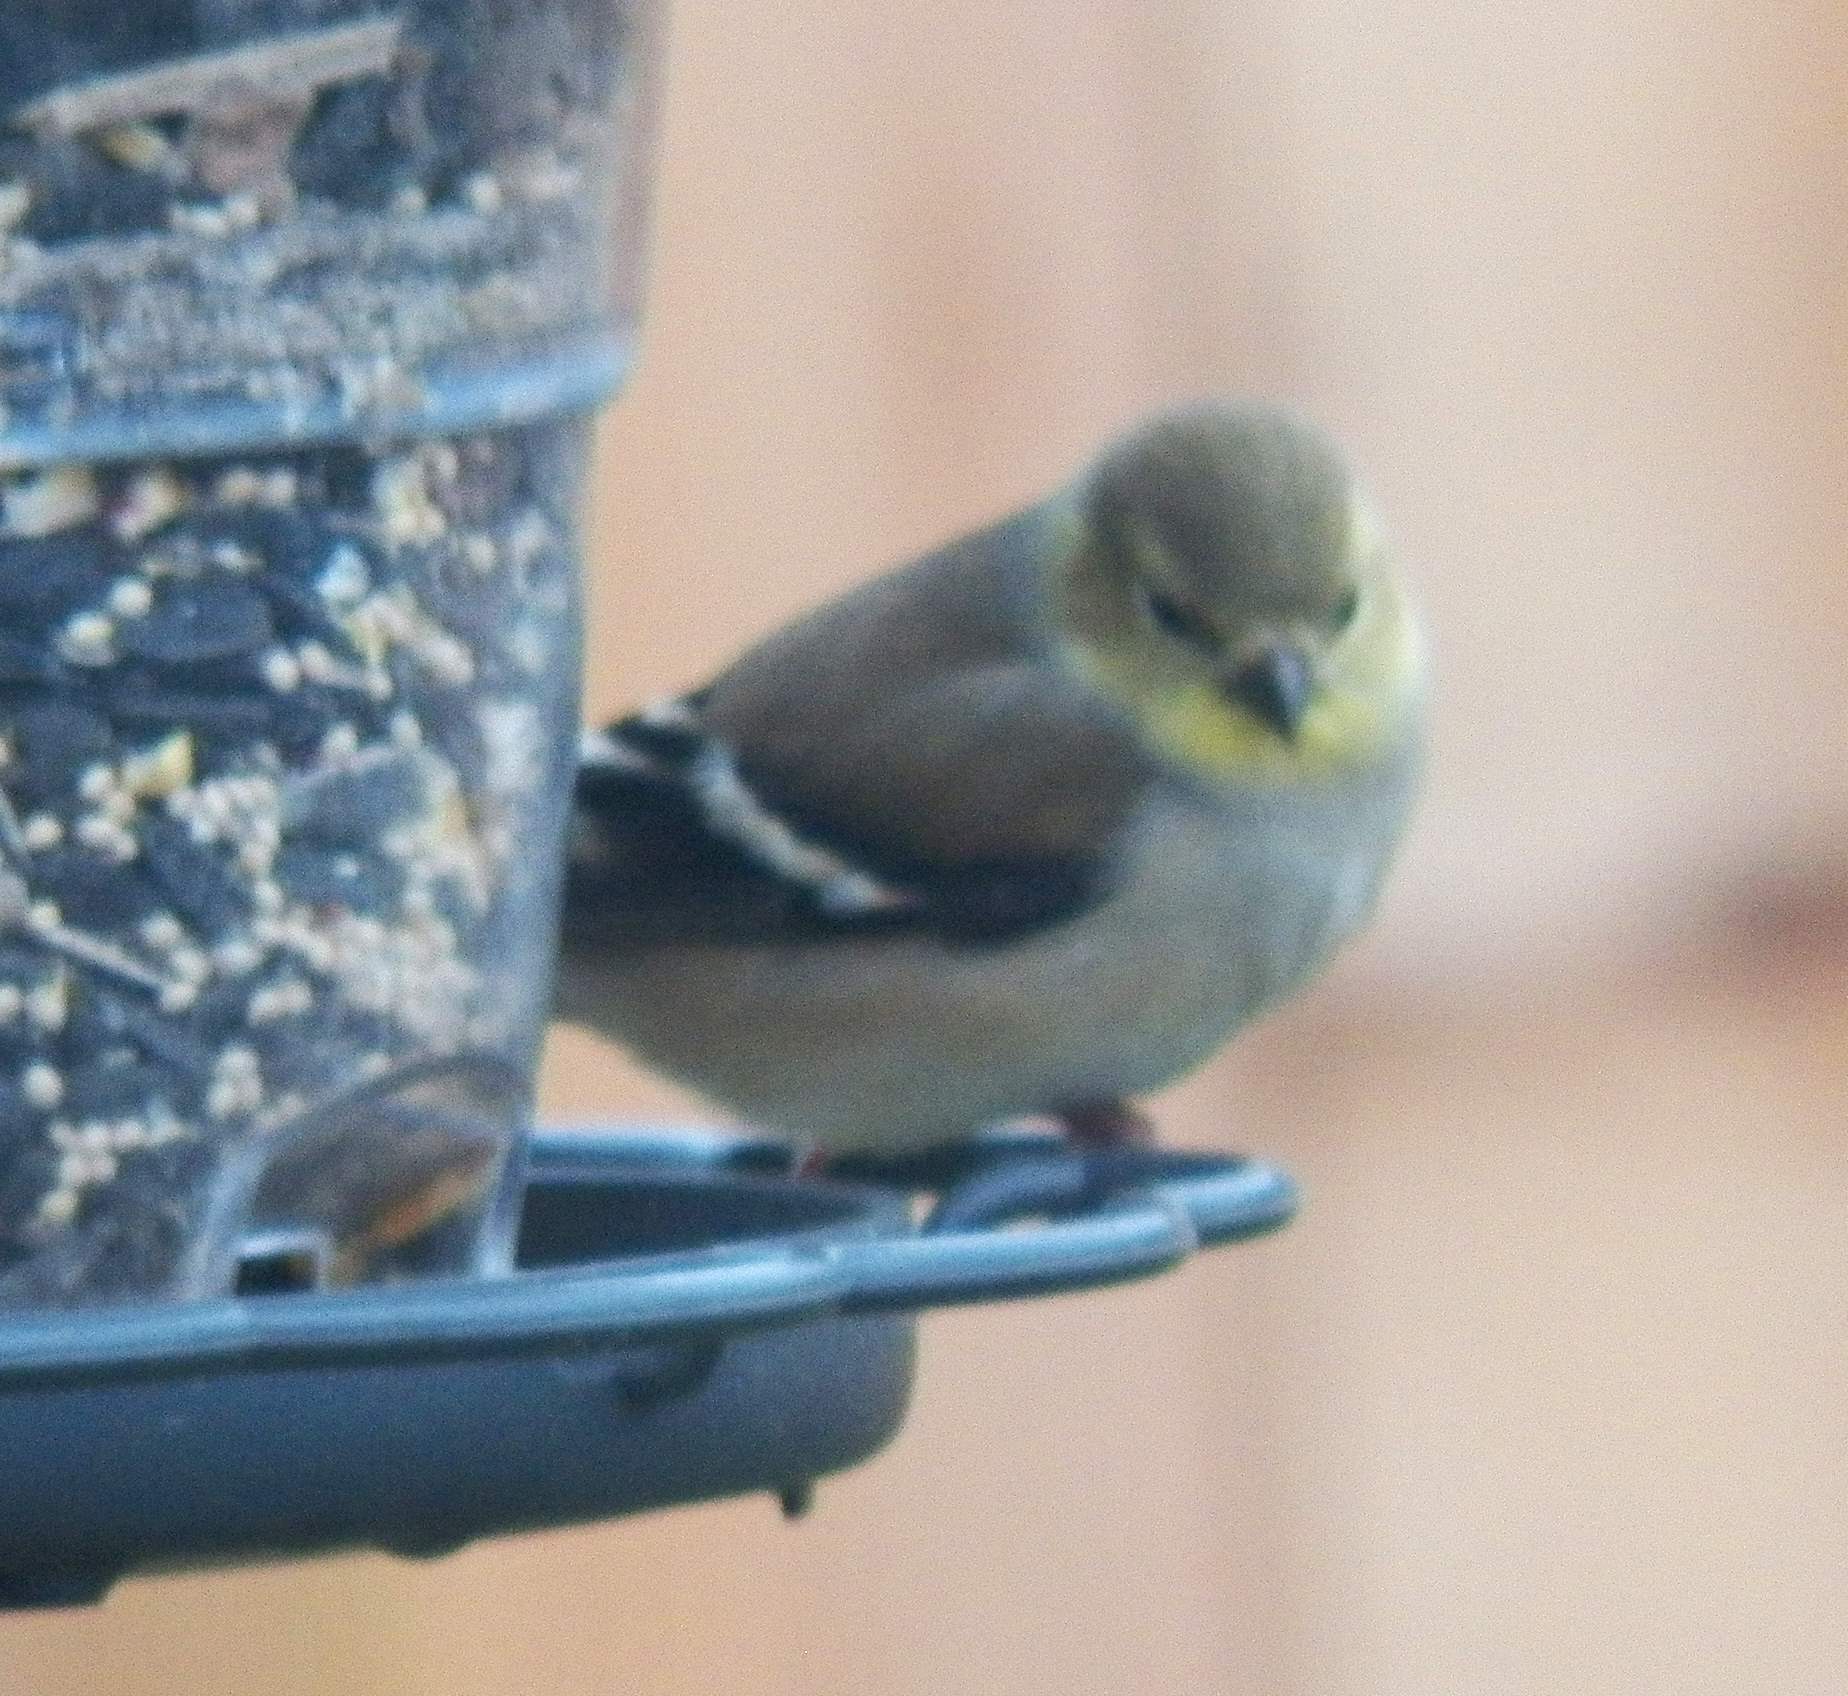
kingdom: Animalia
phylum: Chordata
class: Aves
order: Passeriformes
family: Fringillidae
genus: Spinus
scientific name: Spinus tristis
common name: American goldfinch
